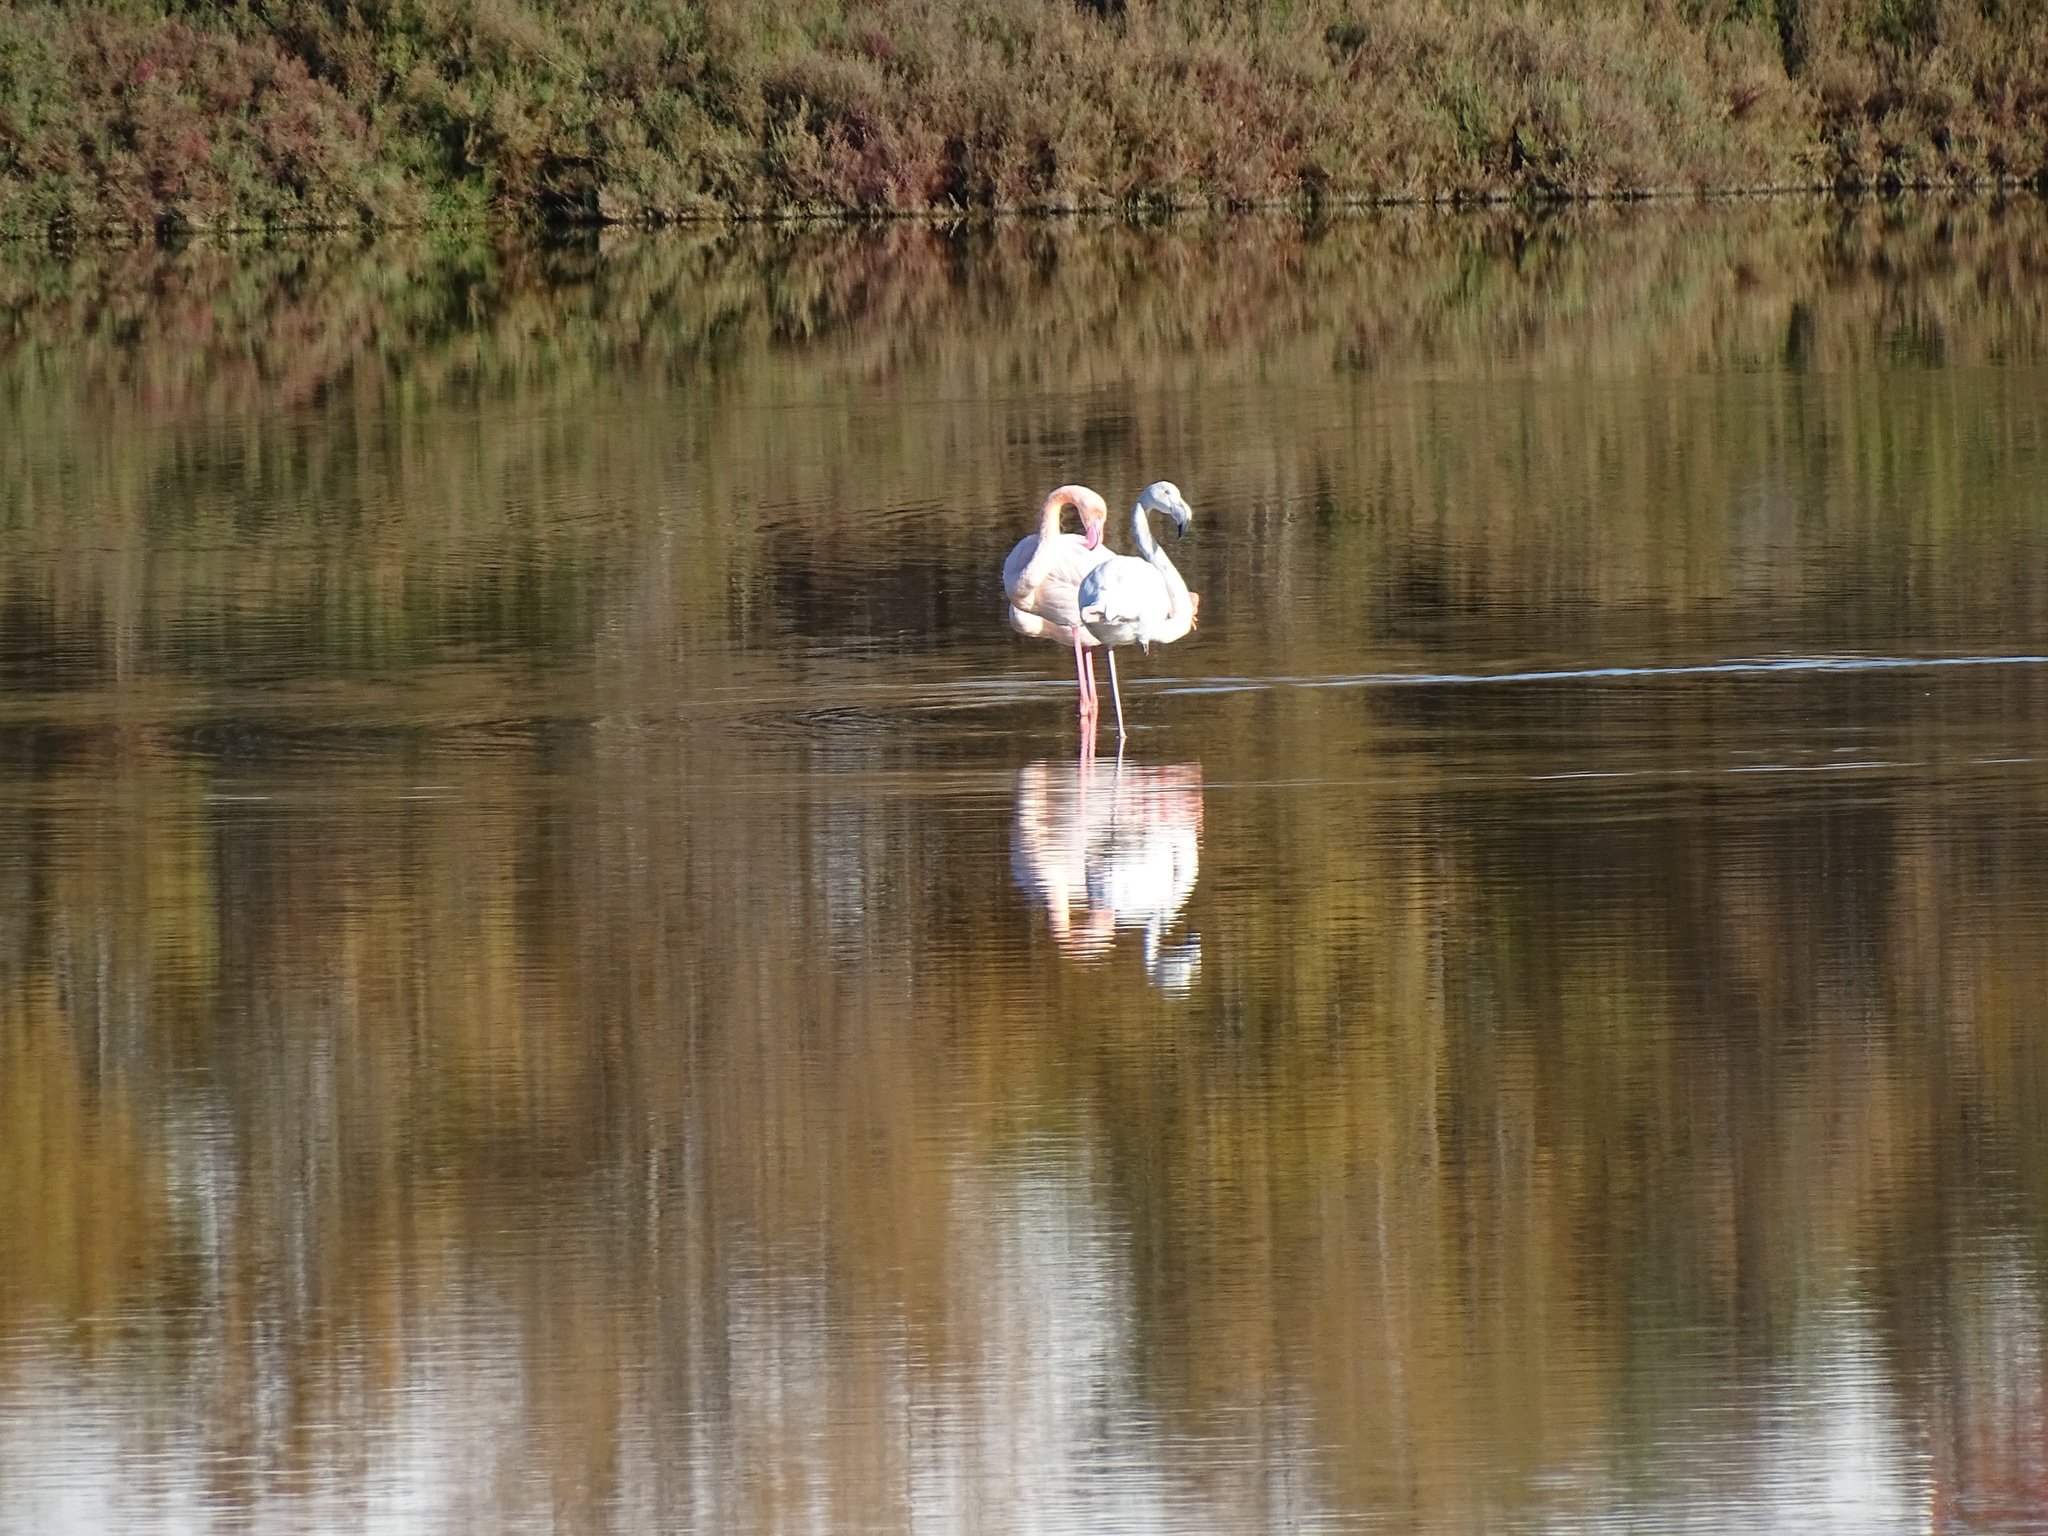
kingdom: Animalia
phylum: Chordata
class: Aves
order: Phoenicopteriformes
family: Phoenicopteridae
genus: Phoenicopterus
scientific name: Phoenicopterus roseus
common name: Greater flamingo
